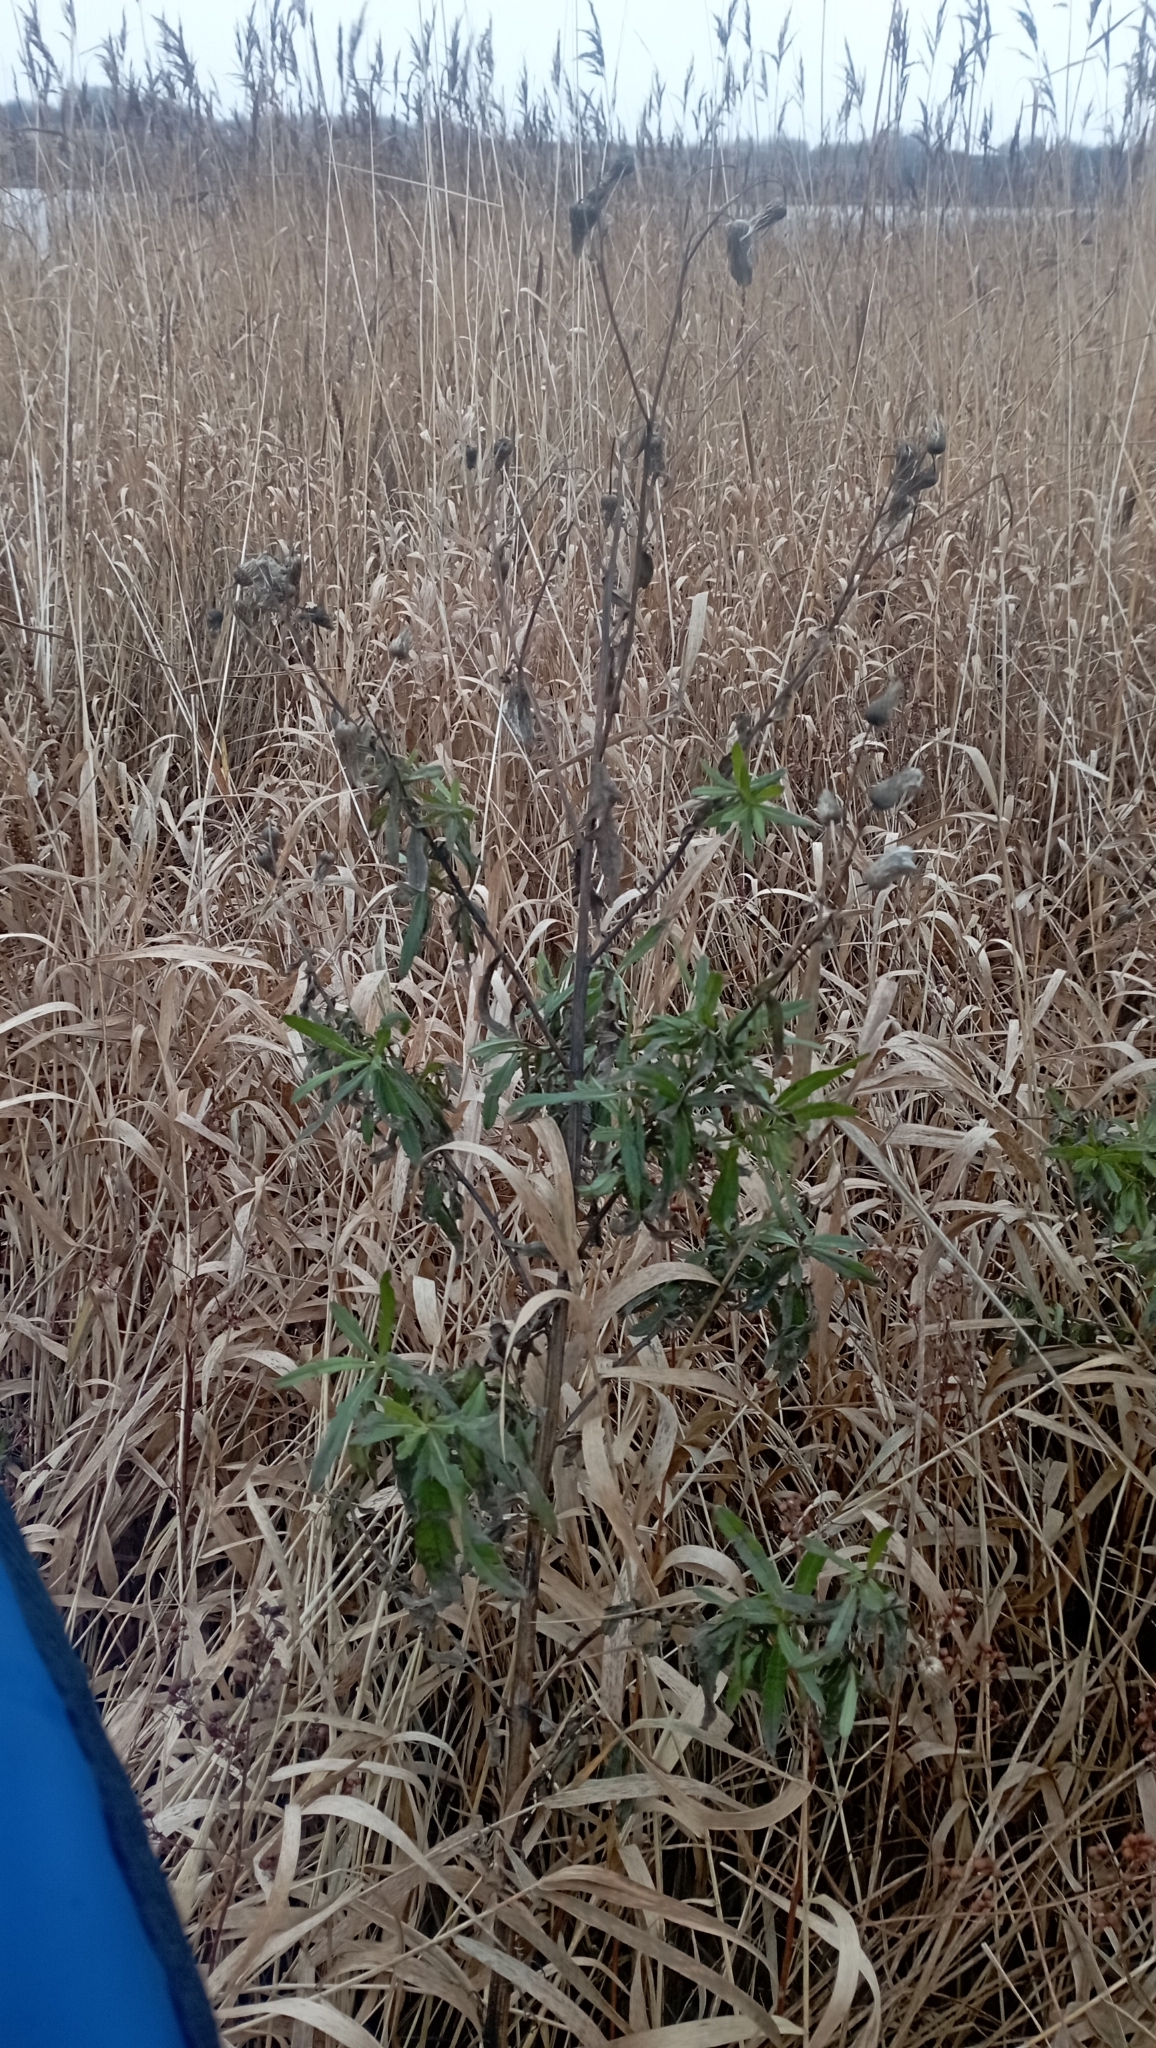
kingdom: Plantae
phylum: Tracheophyta
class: Magnoliopsida
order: Asterales
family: Asteraceae
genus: Cirsium
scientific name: Cirsium arvense
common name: Creeping thistle
